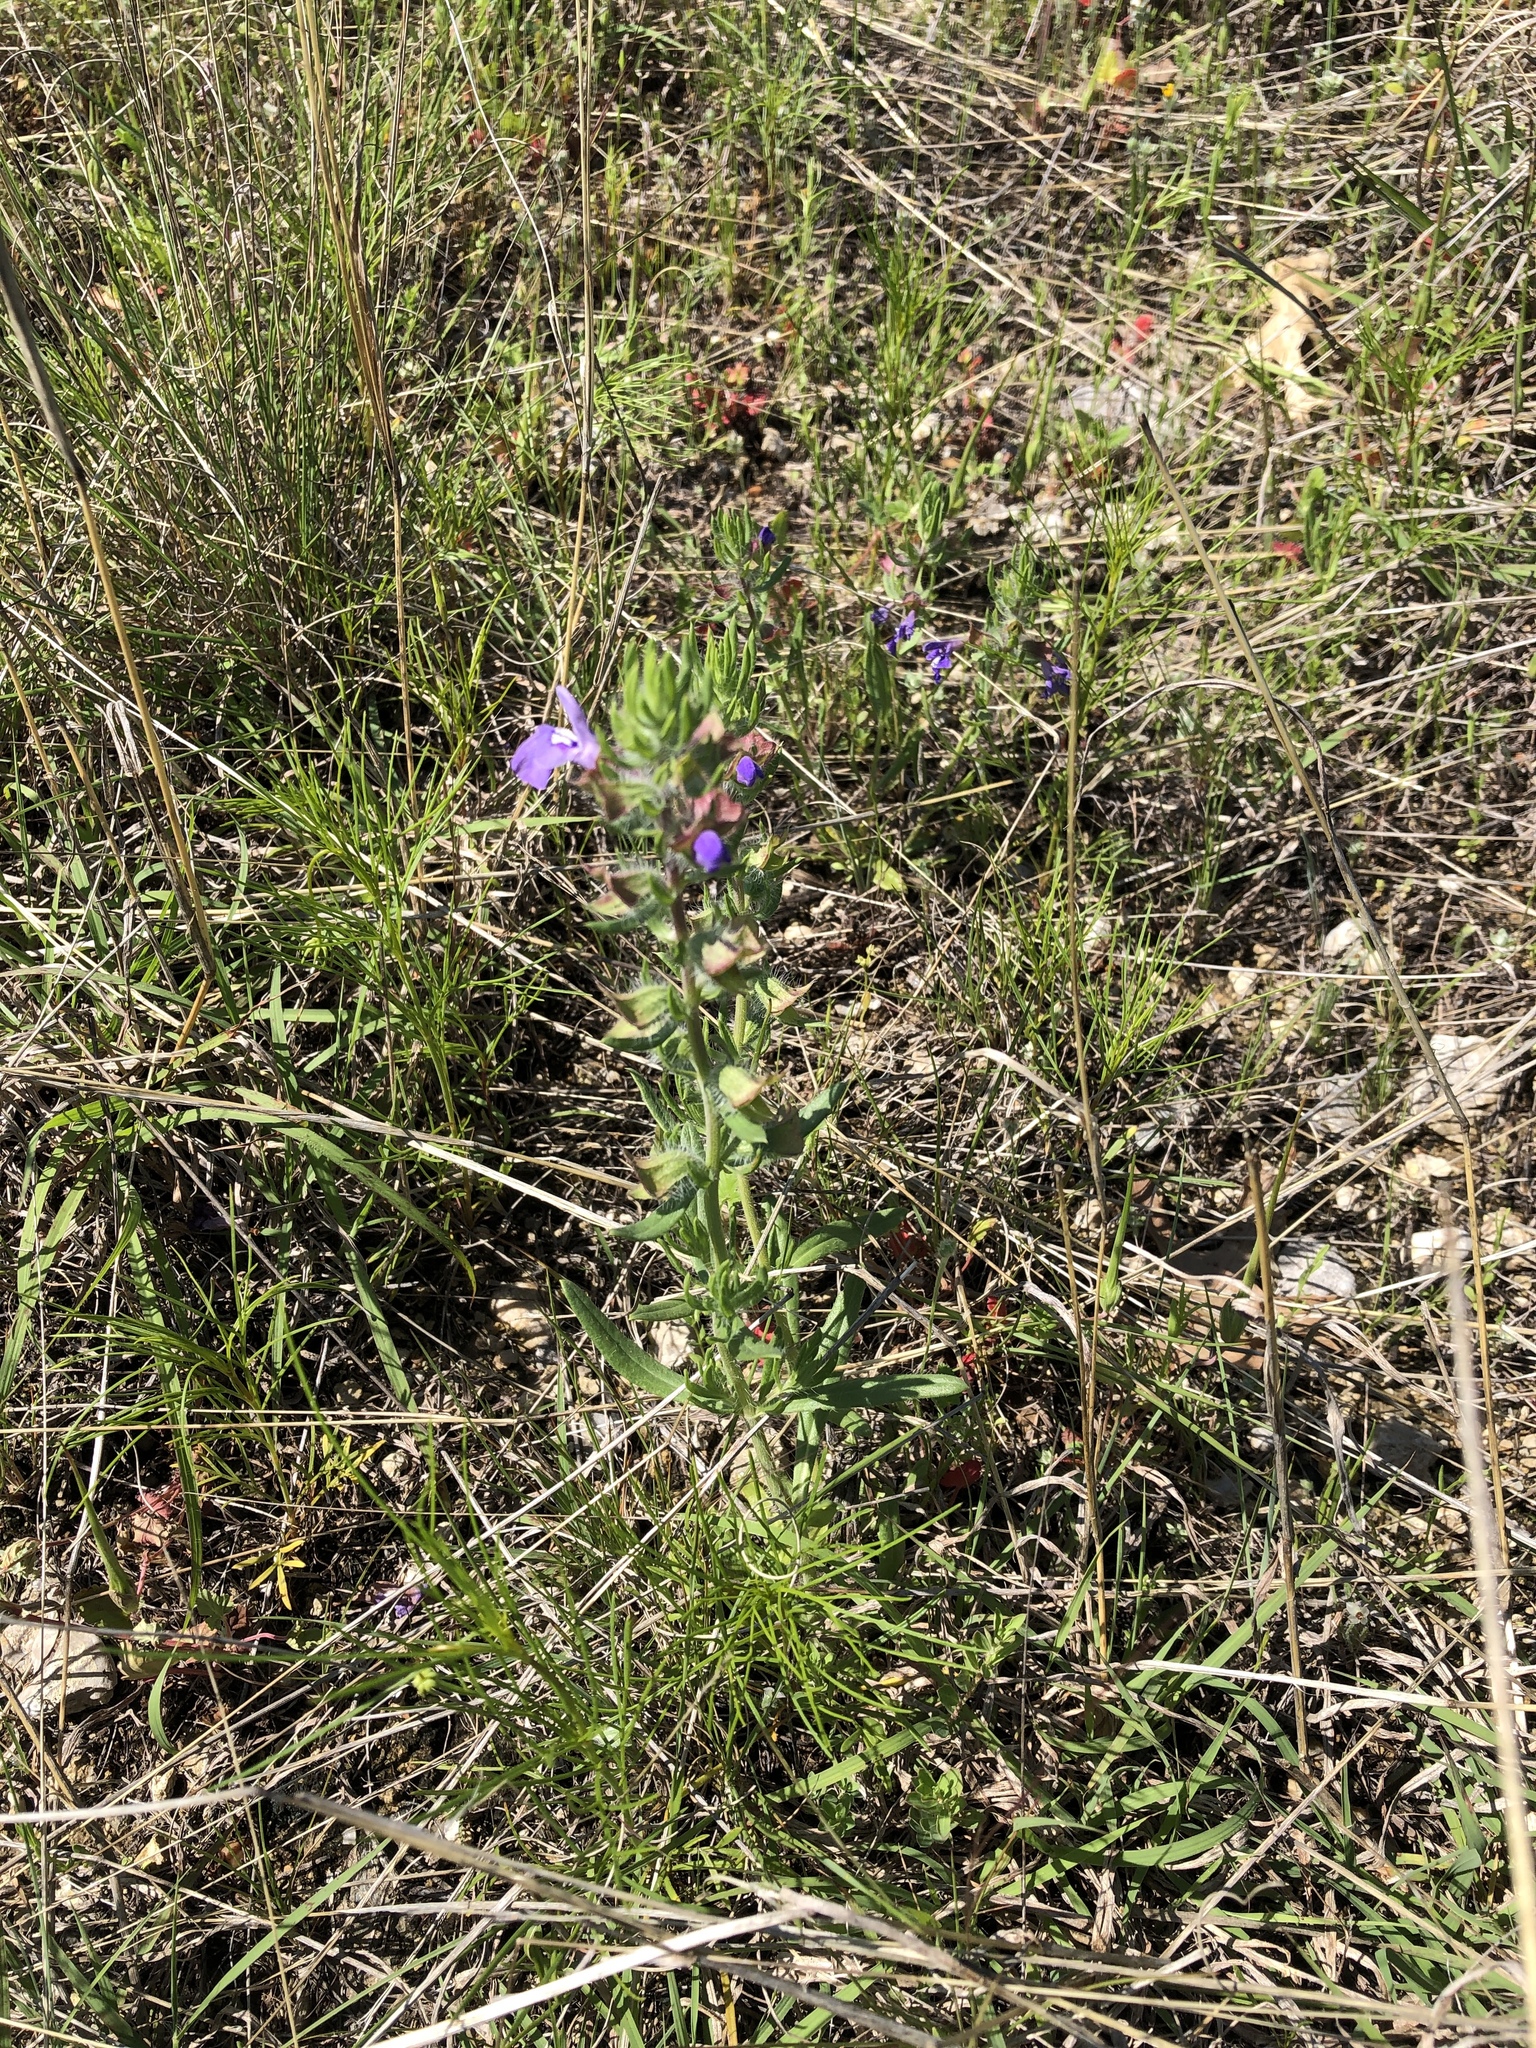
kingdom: Plantae
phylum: Tracheophyta
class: Magnoliopsida
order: Lamiales
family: Lamiaceae
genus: Salvia
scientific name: Salvia texana
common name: Texas sage
